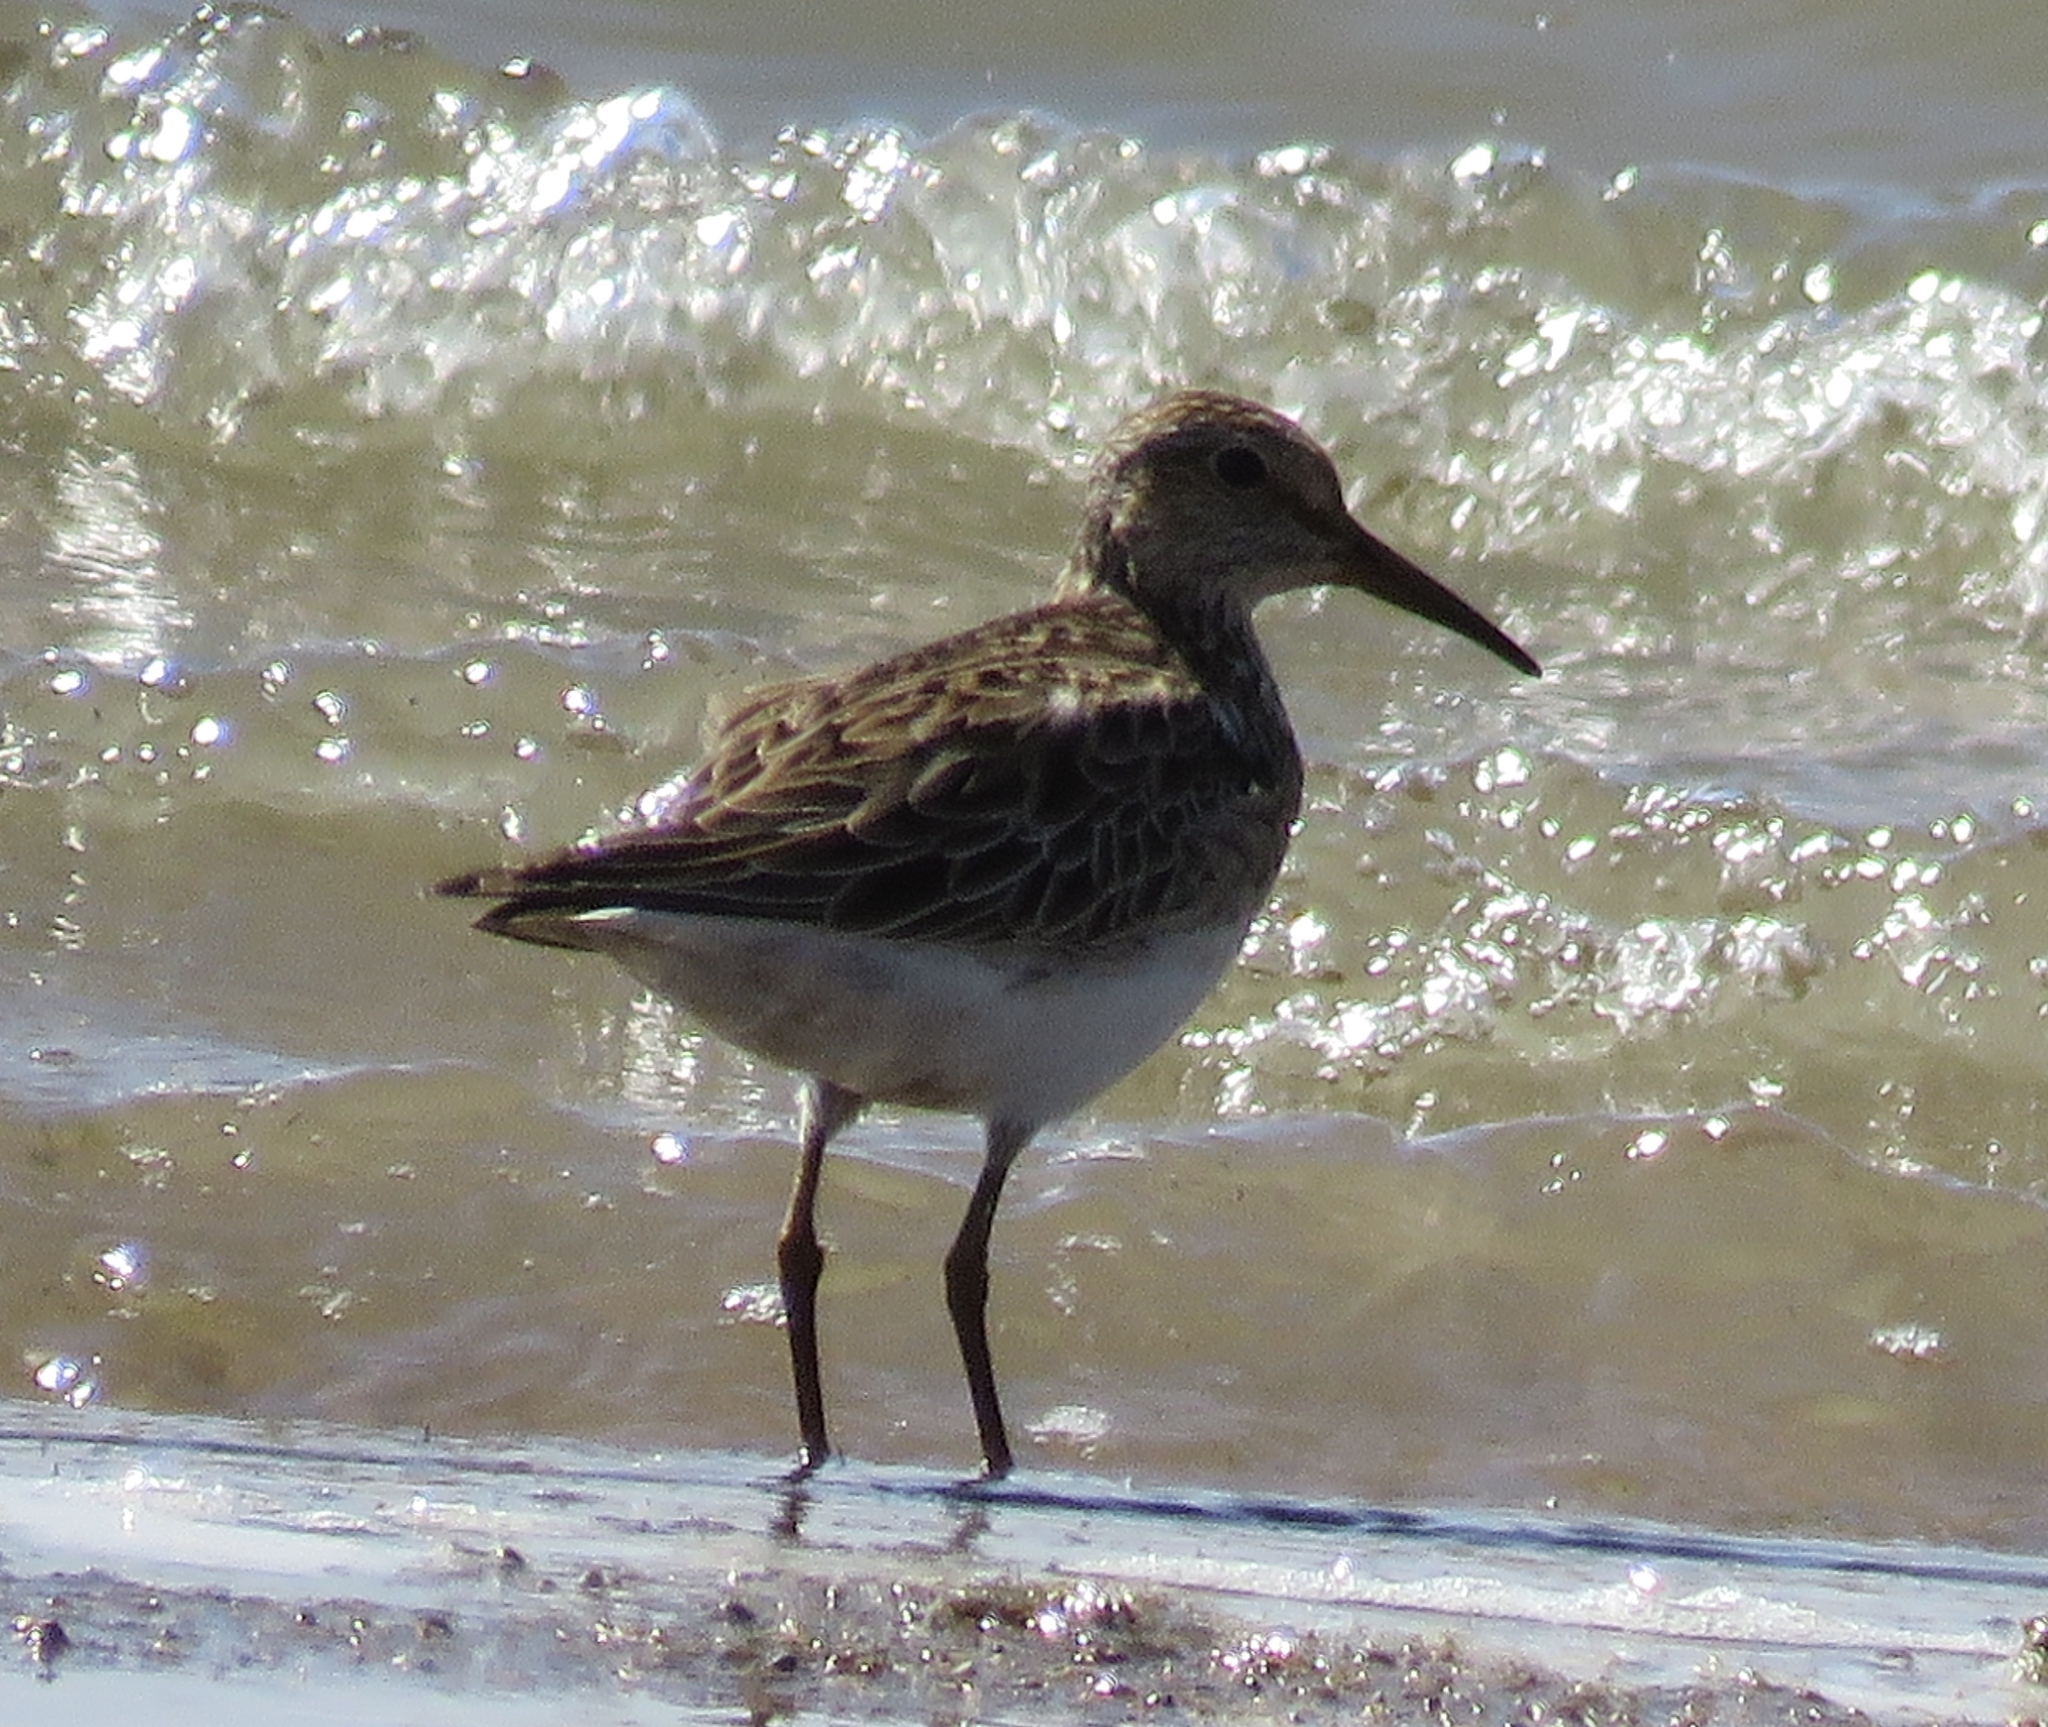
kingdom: Animalia
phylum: Chordata
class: Aves
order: Charadriiformes
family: Scolopacidae
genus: Calidris
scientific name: Calidris melanotos
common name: Pectoral sandpiper
